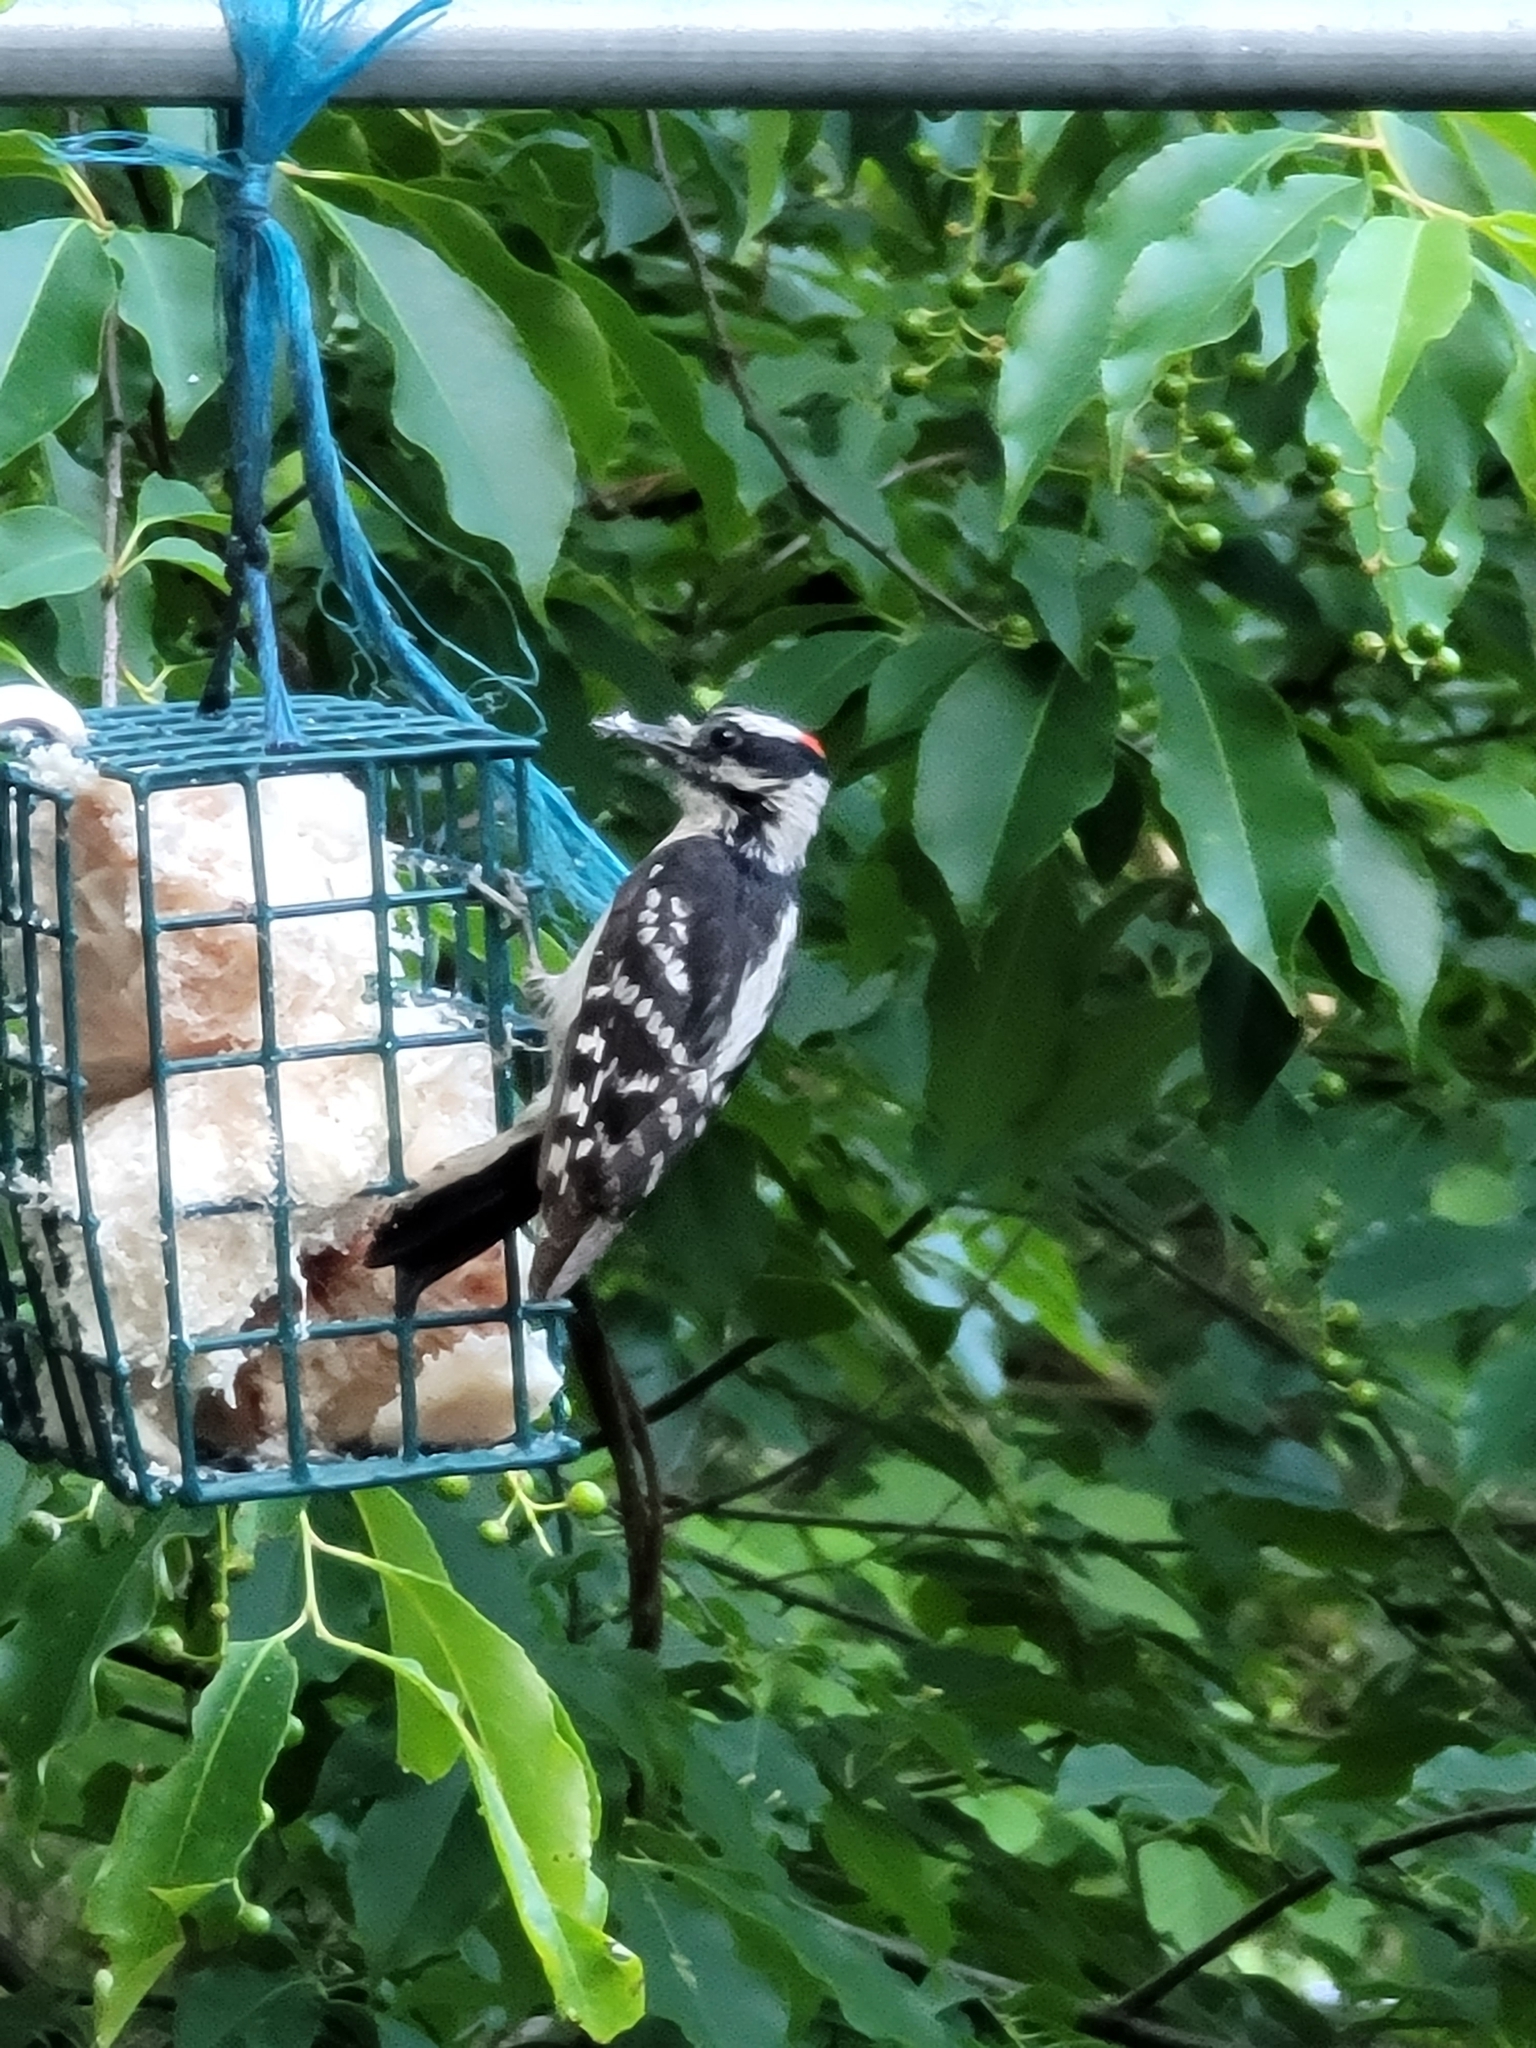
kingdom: Animalia
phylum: Chordata
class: Aves
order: Piciformes
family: Picidae
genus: Dryobates
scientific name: Dryobates pubescens
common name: Downy woodpecker
